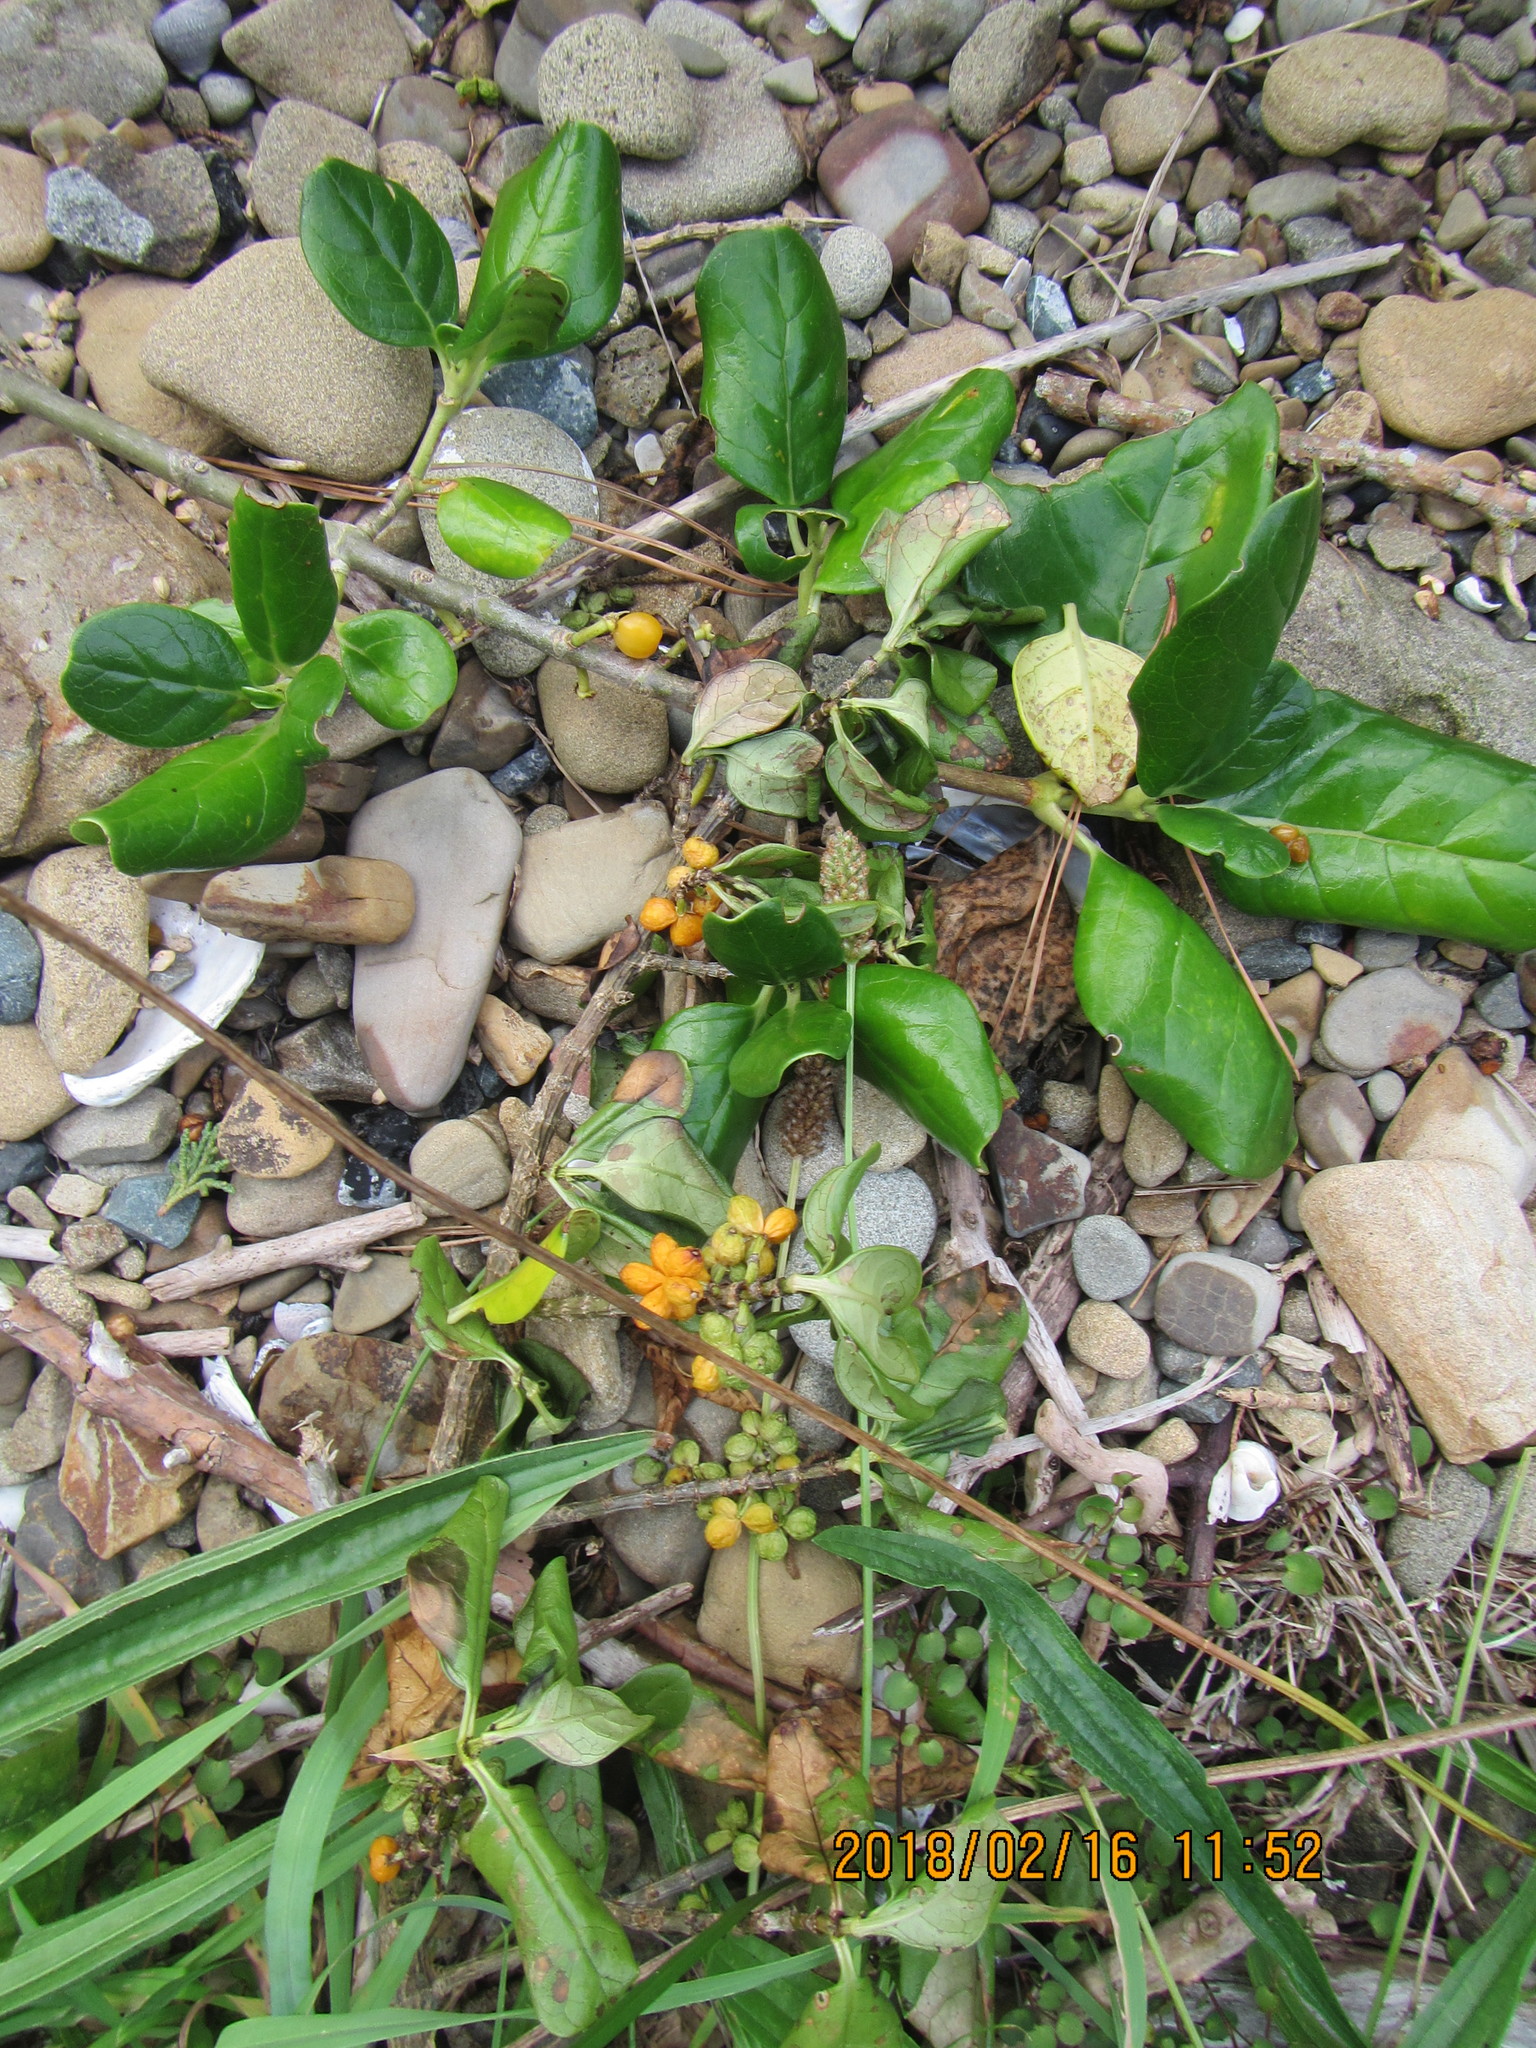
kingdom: Plantae
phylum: Tracheophyta
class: Magnoliopsida
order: Gentianales
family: Rubiaceae
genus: Coprosma
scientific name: Coprosma repens
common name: Tree bedstraw
